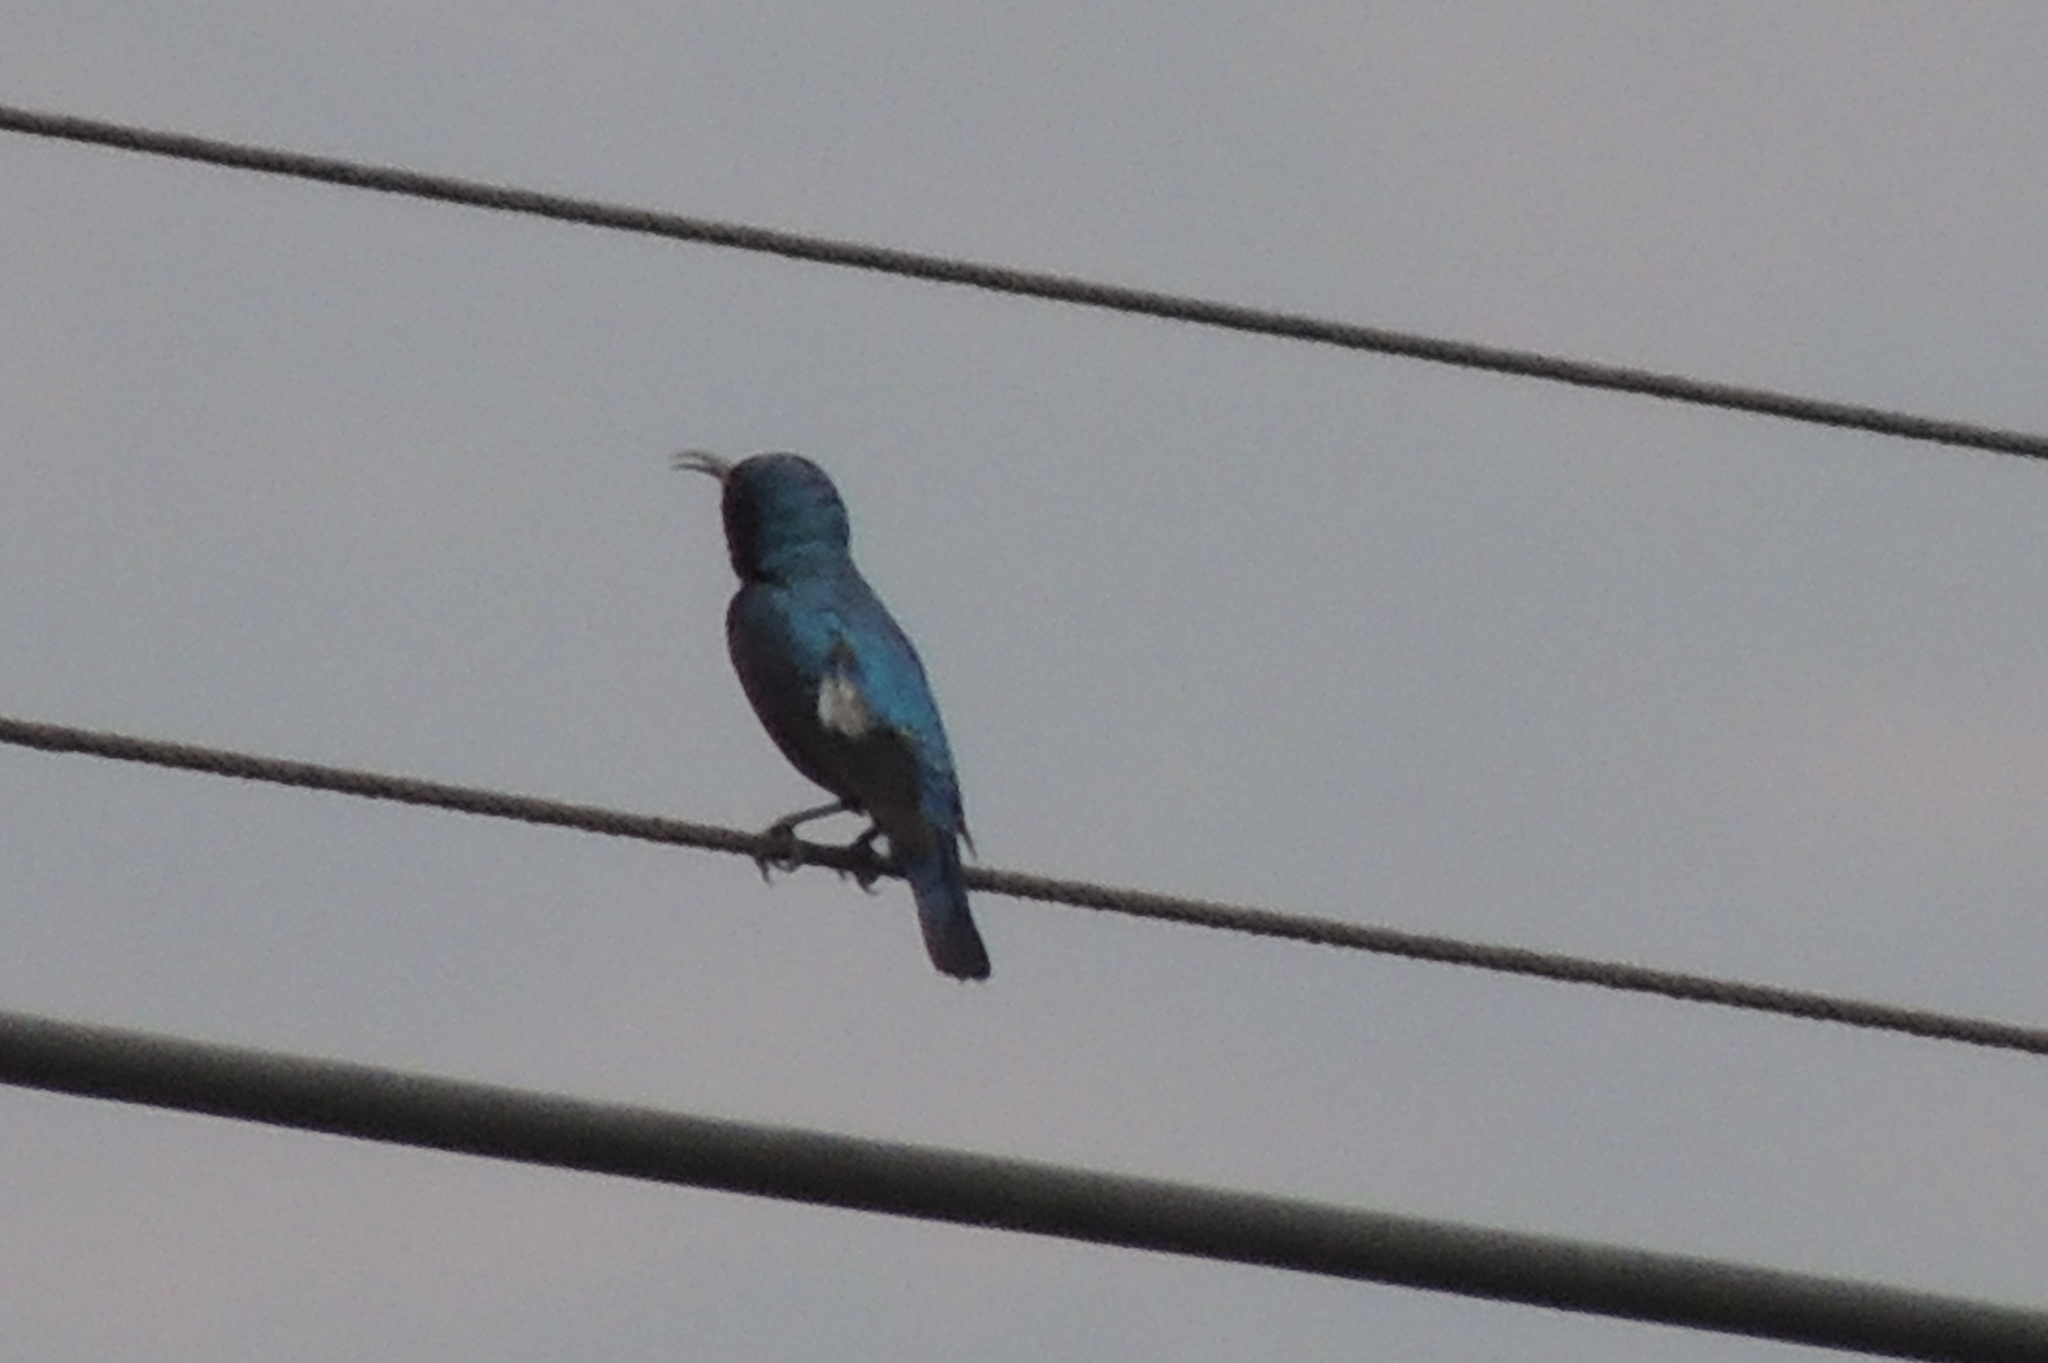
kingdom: Animalia
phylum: Chordata
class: Aves
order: Passeriformes
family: Nectariniidae
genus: Cinnyris
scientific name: Cinnyris asiaticus
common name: Purple sunbird
